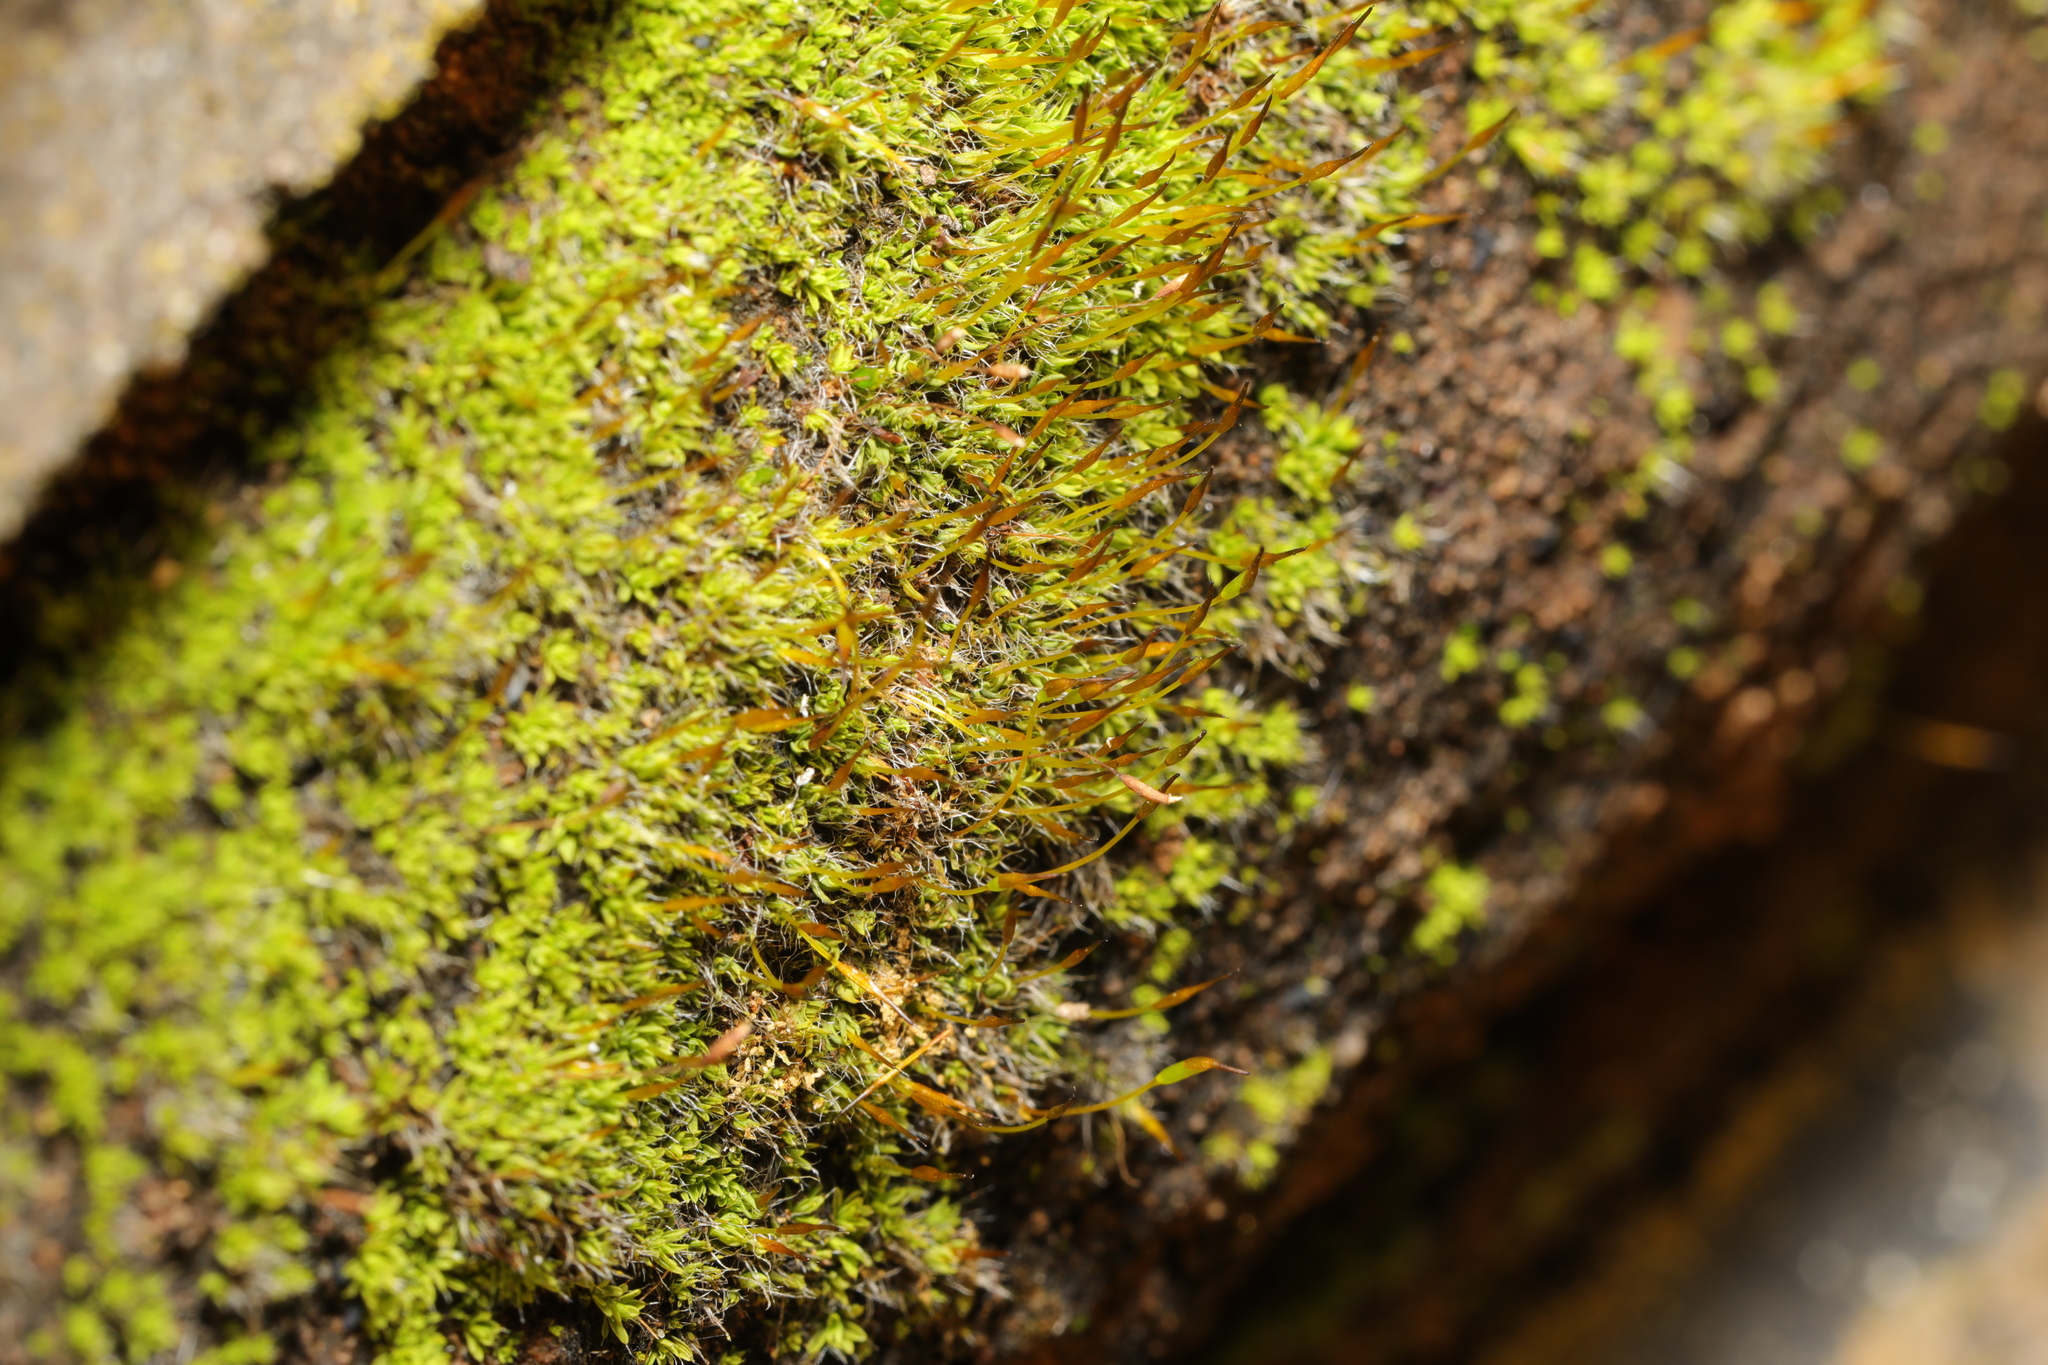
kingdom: Plantae
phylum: Bryophyta
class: Bryopsida
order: Pottiales
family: Pottiaceae
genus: Tortula
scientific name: Tortula muralis
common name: Wall screw-moss
